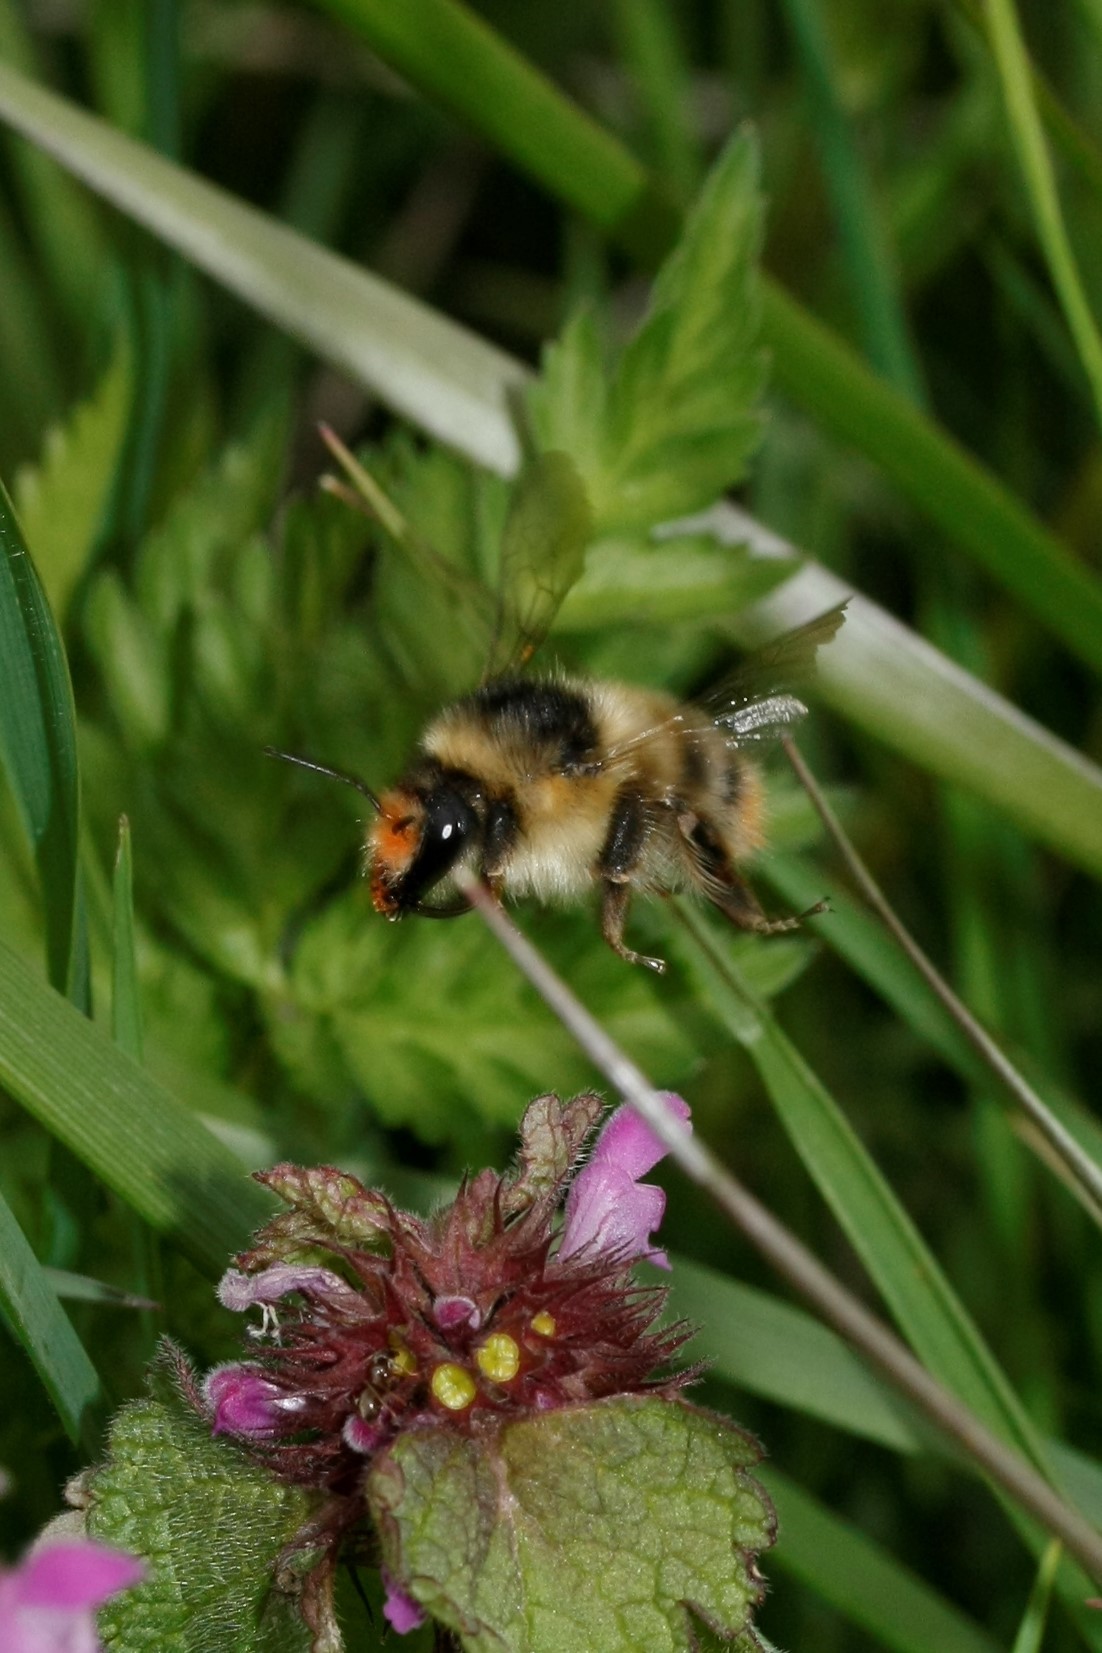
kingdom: Animalia
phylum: Arthropoda
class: Insecta
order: Hymenoptera
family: Apidae
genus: Bombus
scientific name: Bombus sylvarum
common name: Shrill carder bee
